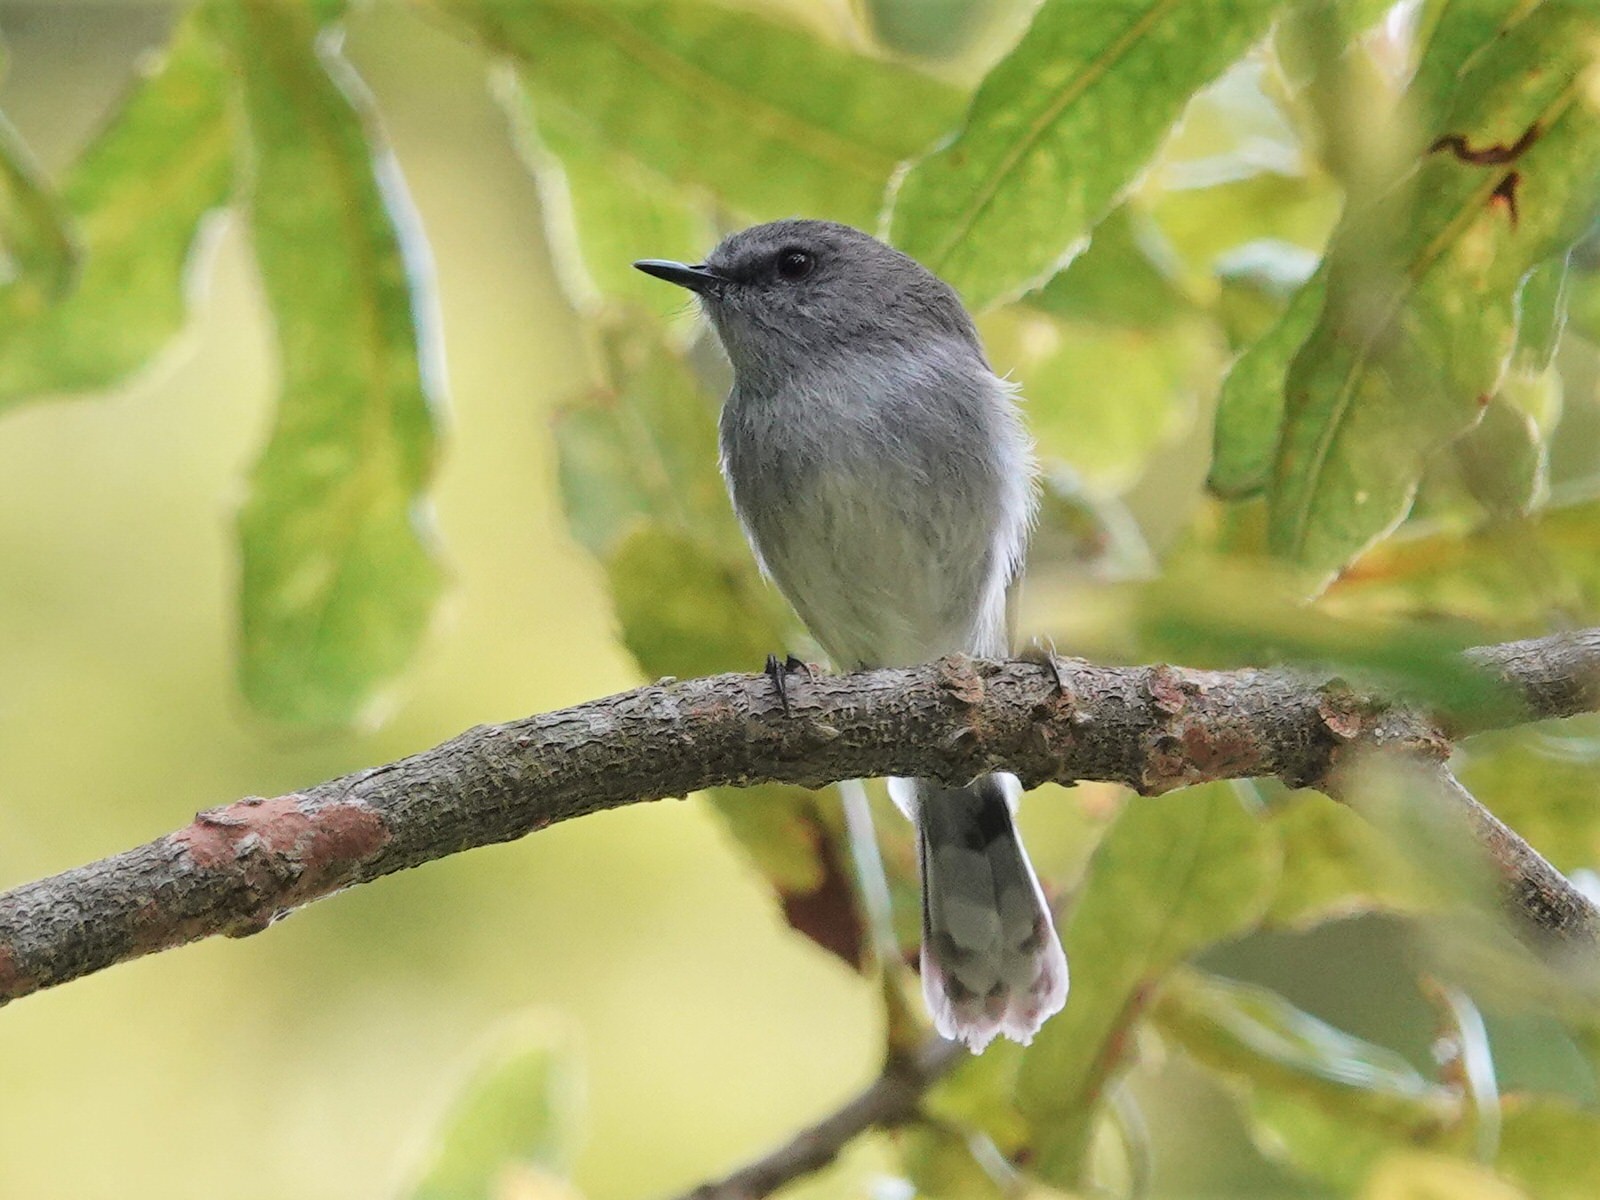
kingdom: Animalia
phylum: Chordata
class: Aves
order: Passeriformes
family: Acanthizidae
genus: Gerygone
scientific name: Gerygone igata
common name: Grey gerygone
